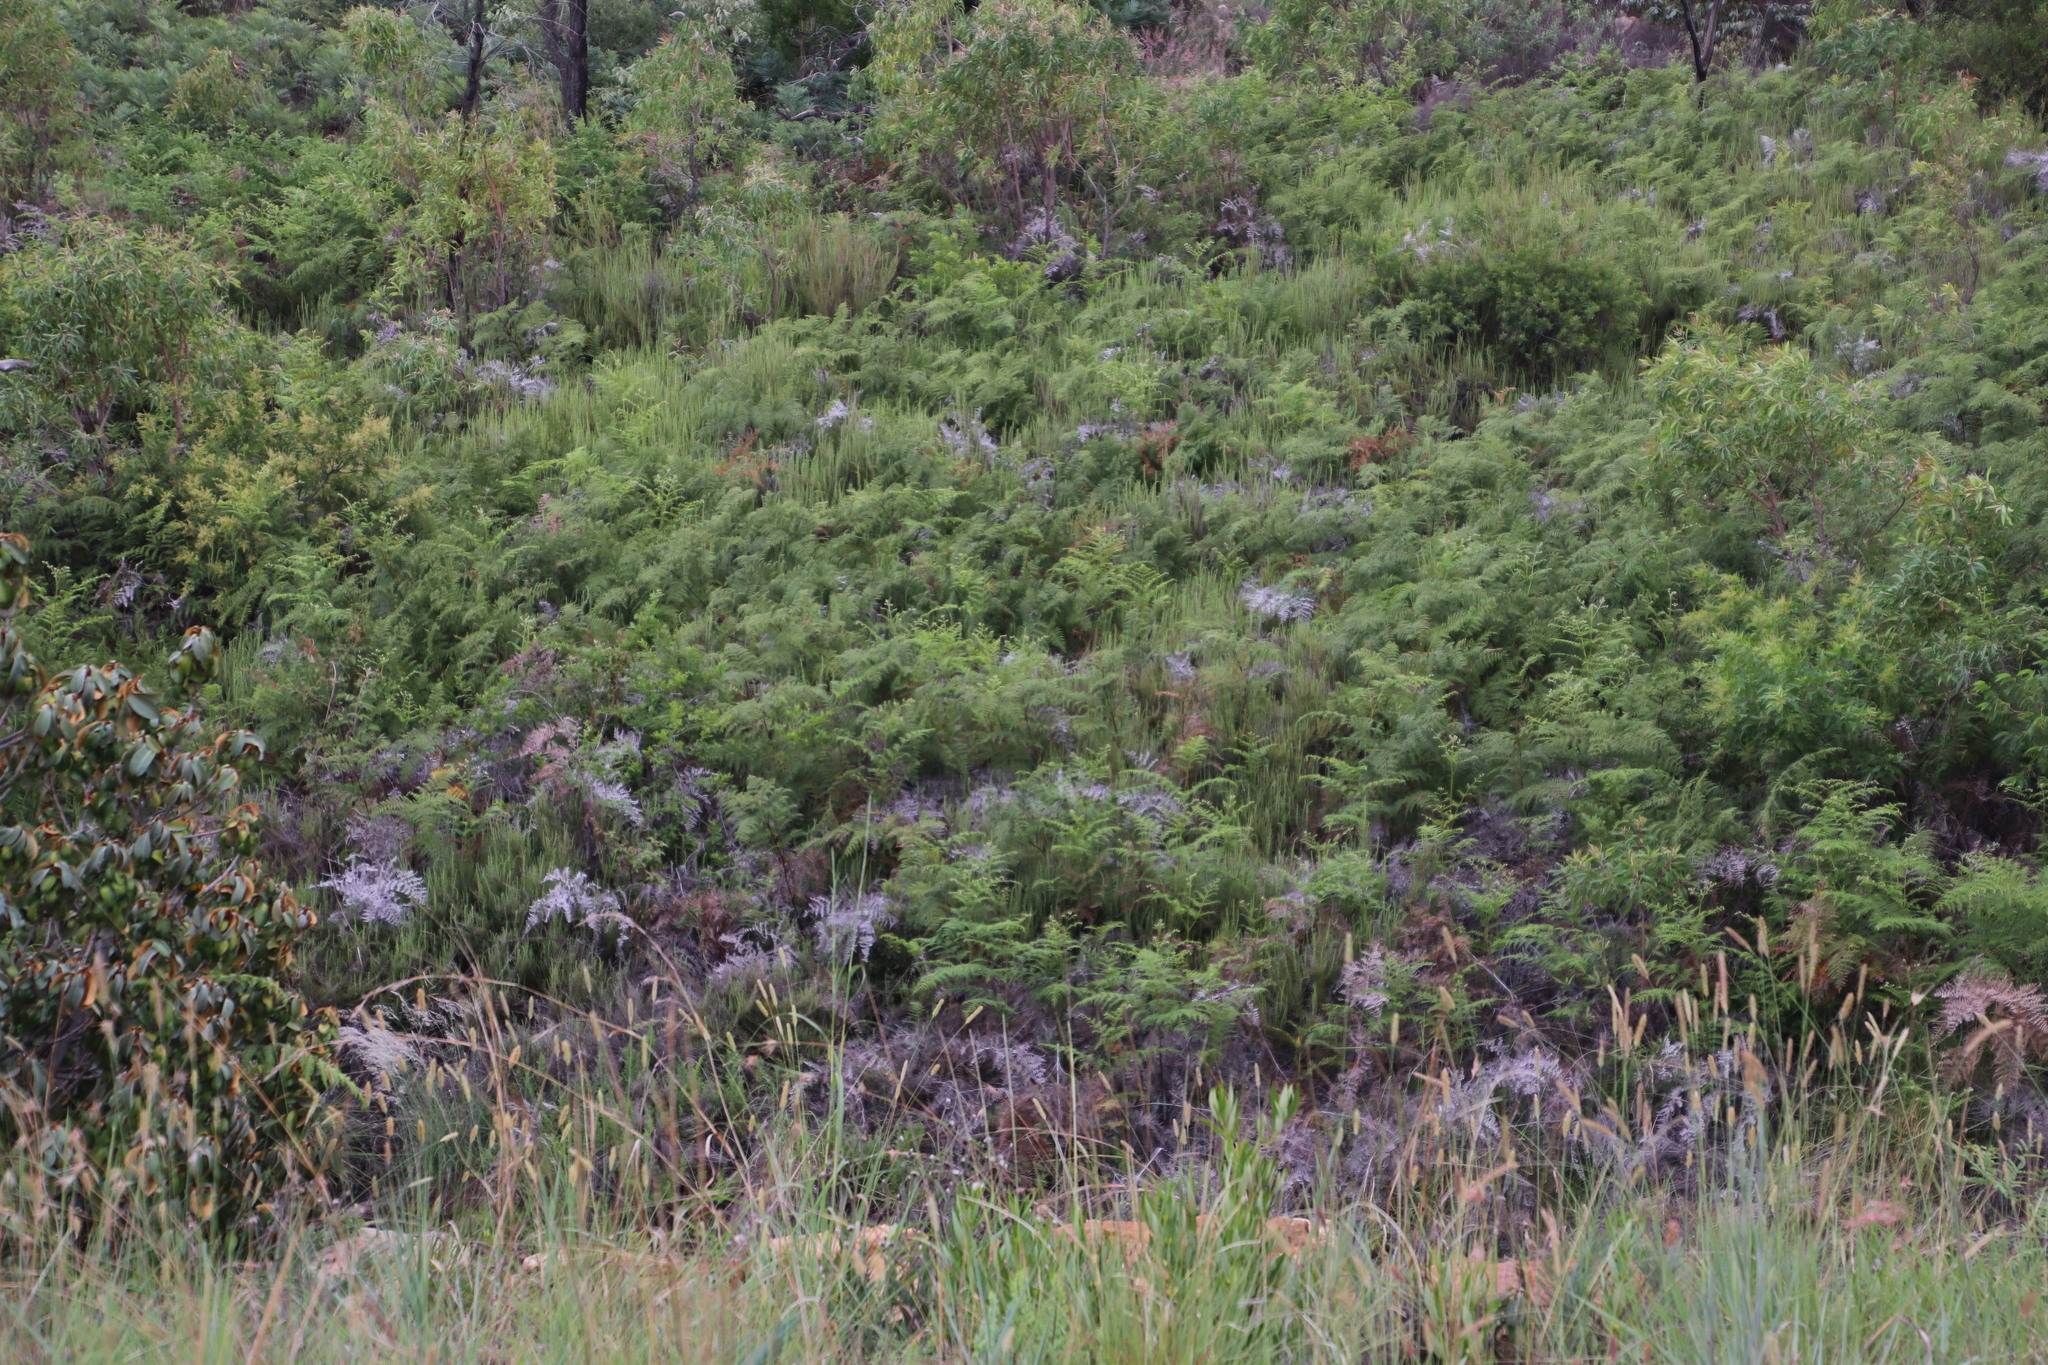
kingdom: Plantae
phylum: Tracheophyta
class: Polypodiopsida
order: Polypodiales
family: Dennstaedtiaceae
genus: Pteridium
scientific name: Pteridium aquilinum
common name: Bracken
